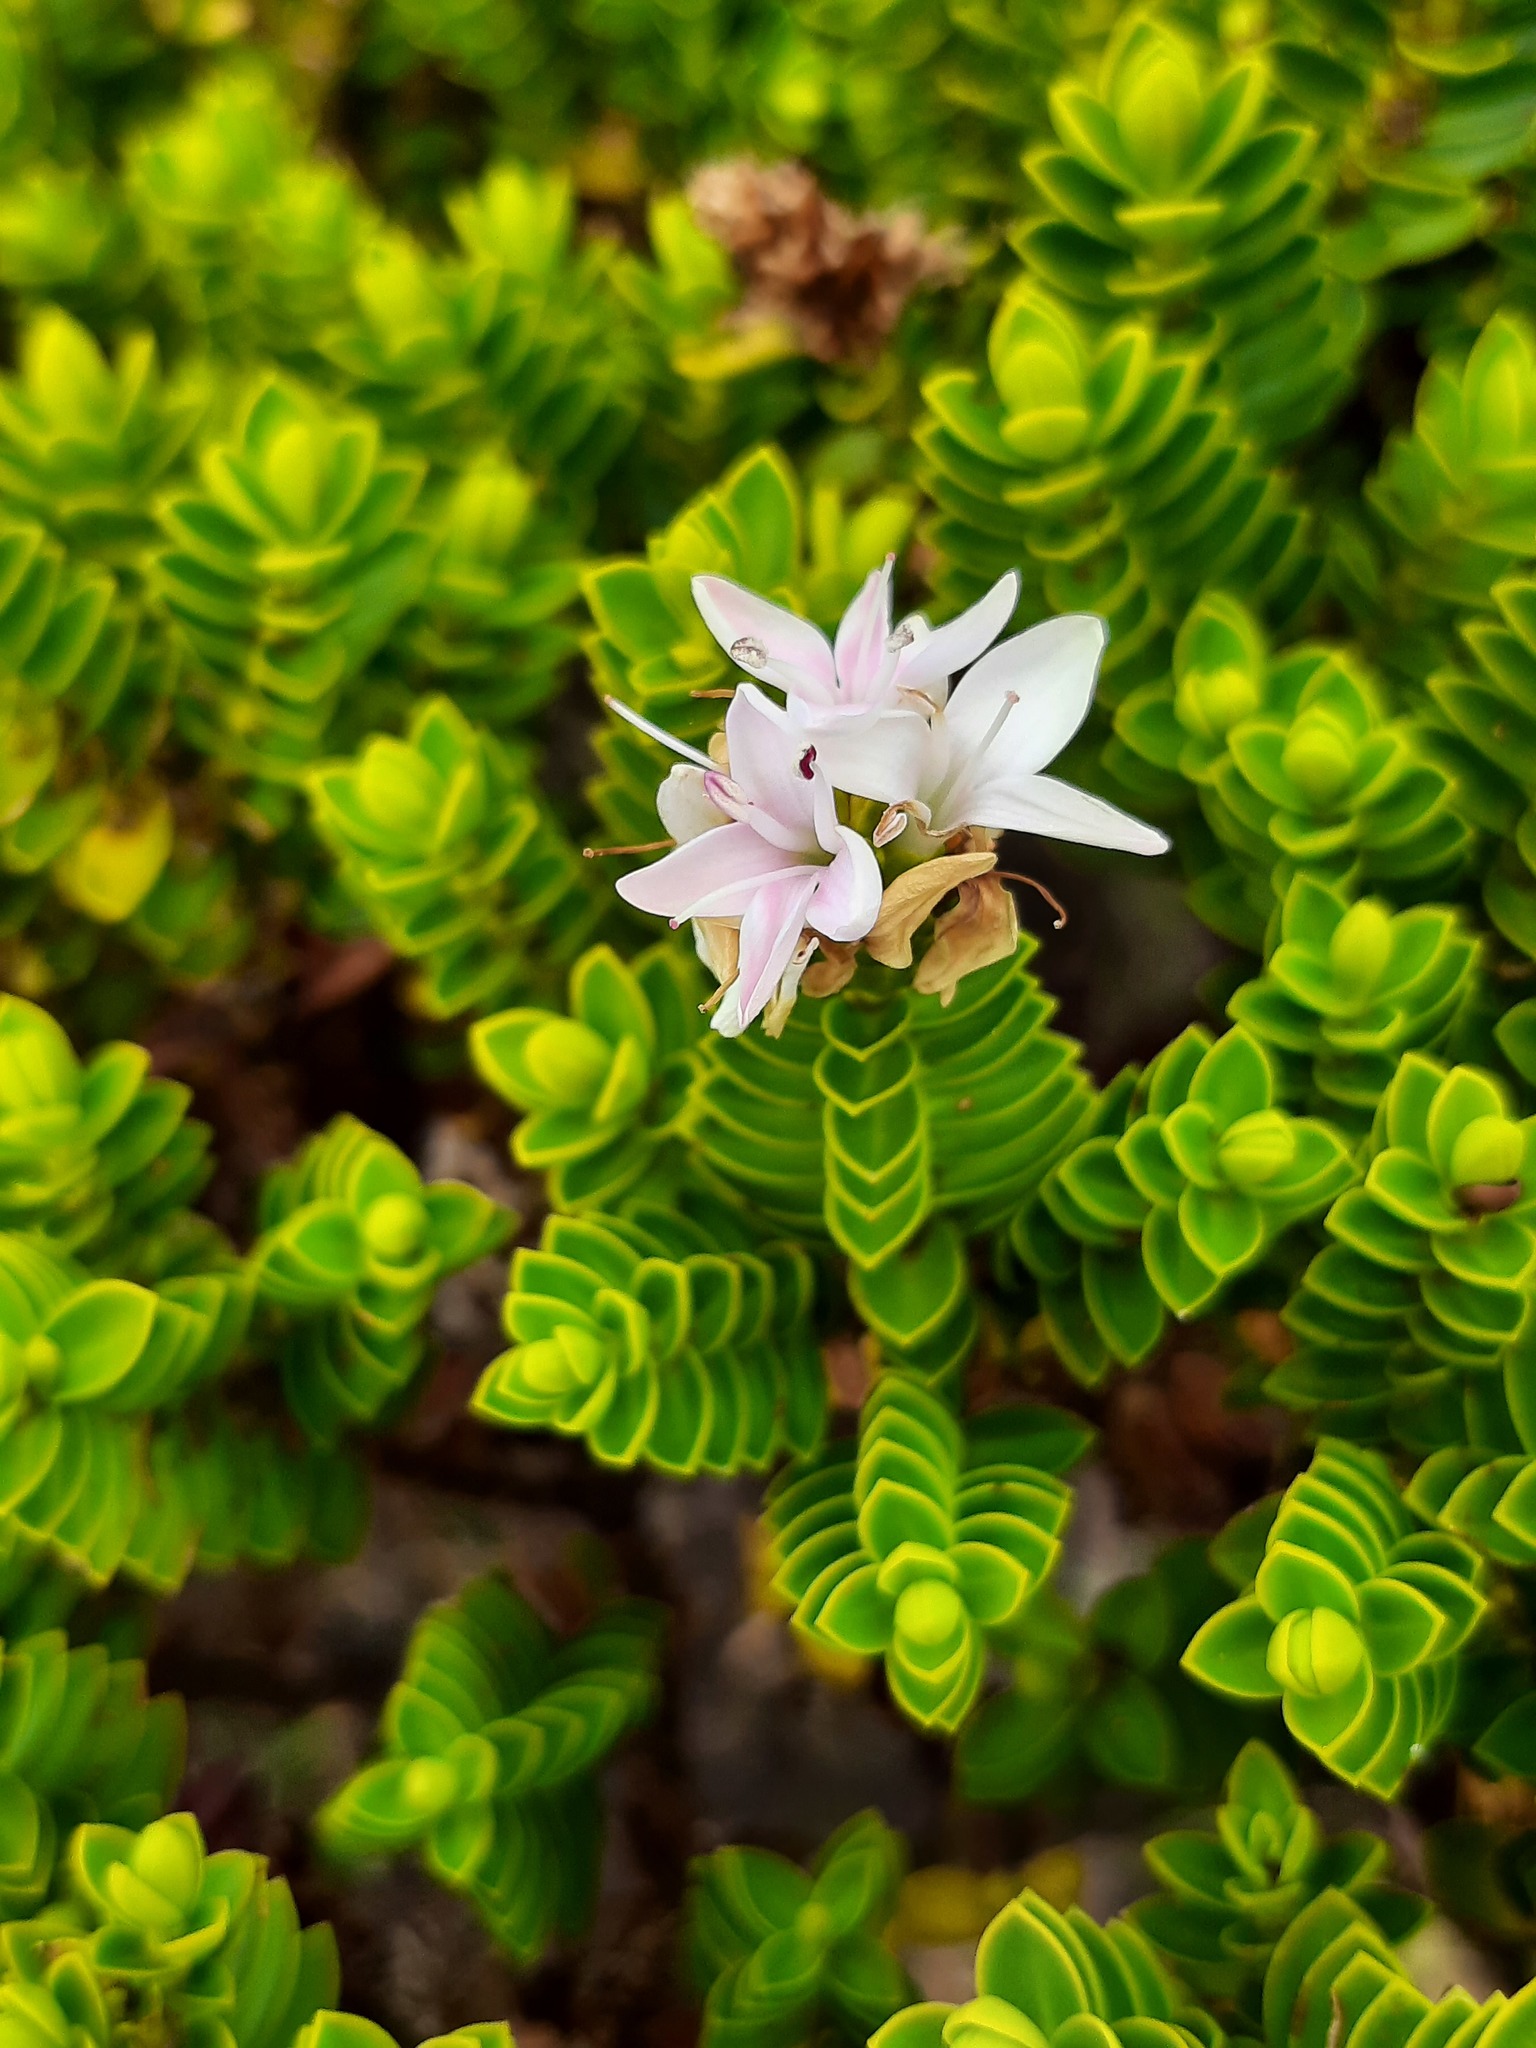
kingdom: Plantae
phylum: Tracheophyta
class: Magnoliopsida
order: Lamiales
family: Plantaginaceae
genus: Veronica
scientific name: Veronica odora
